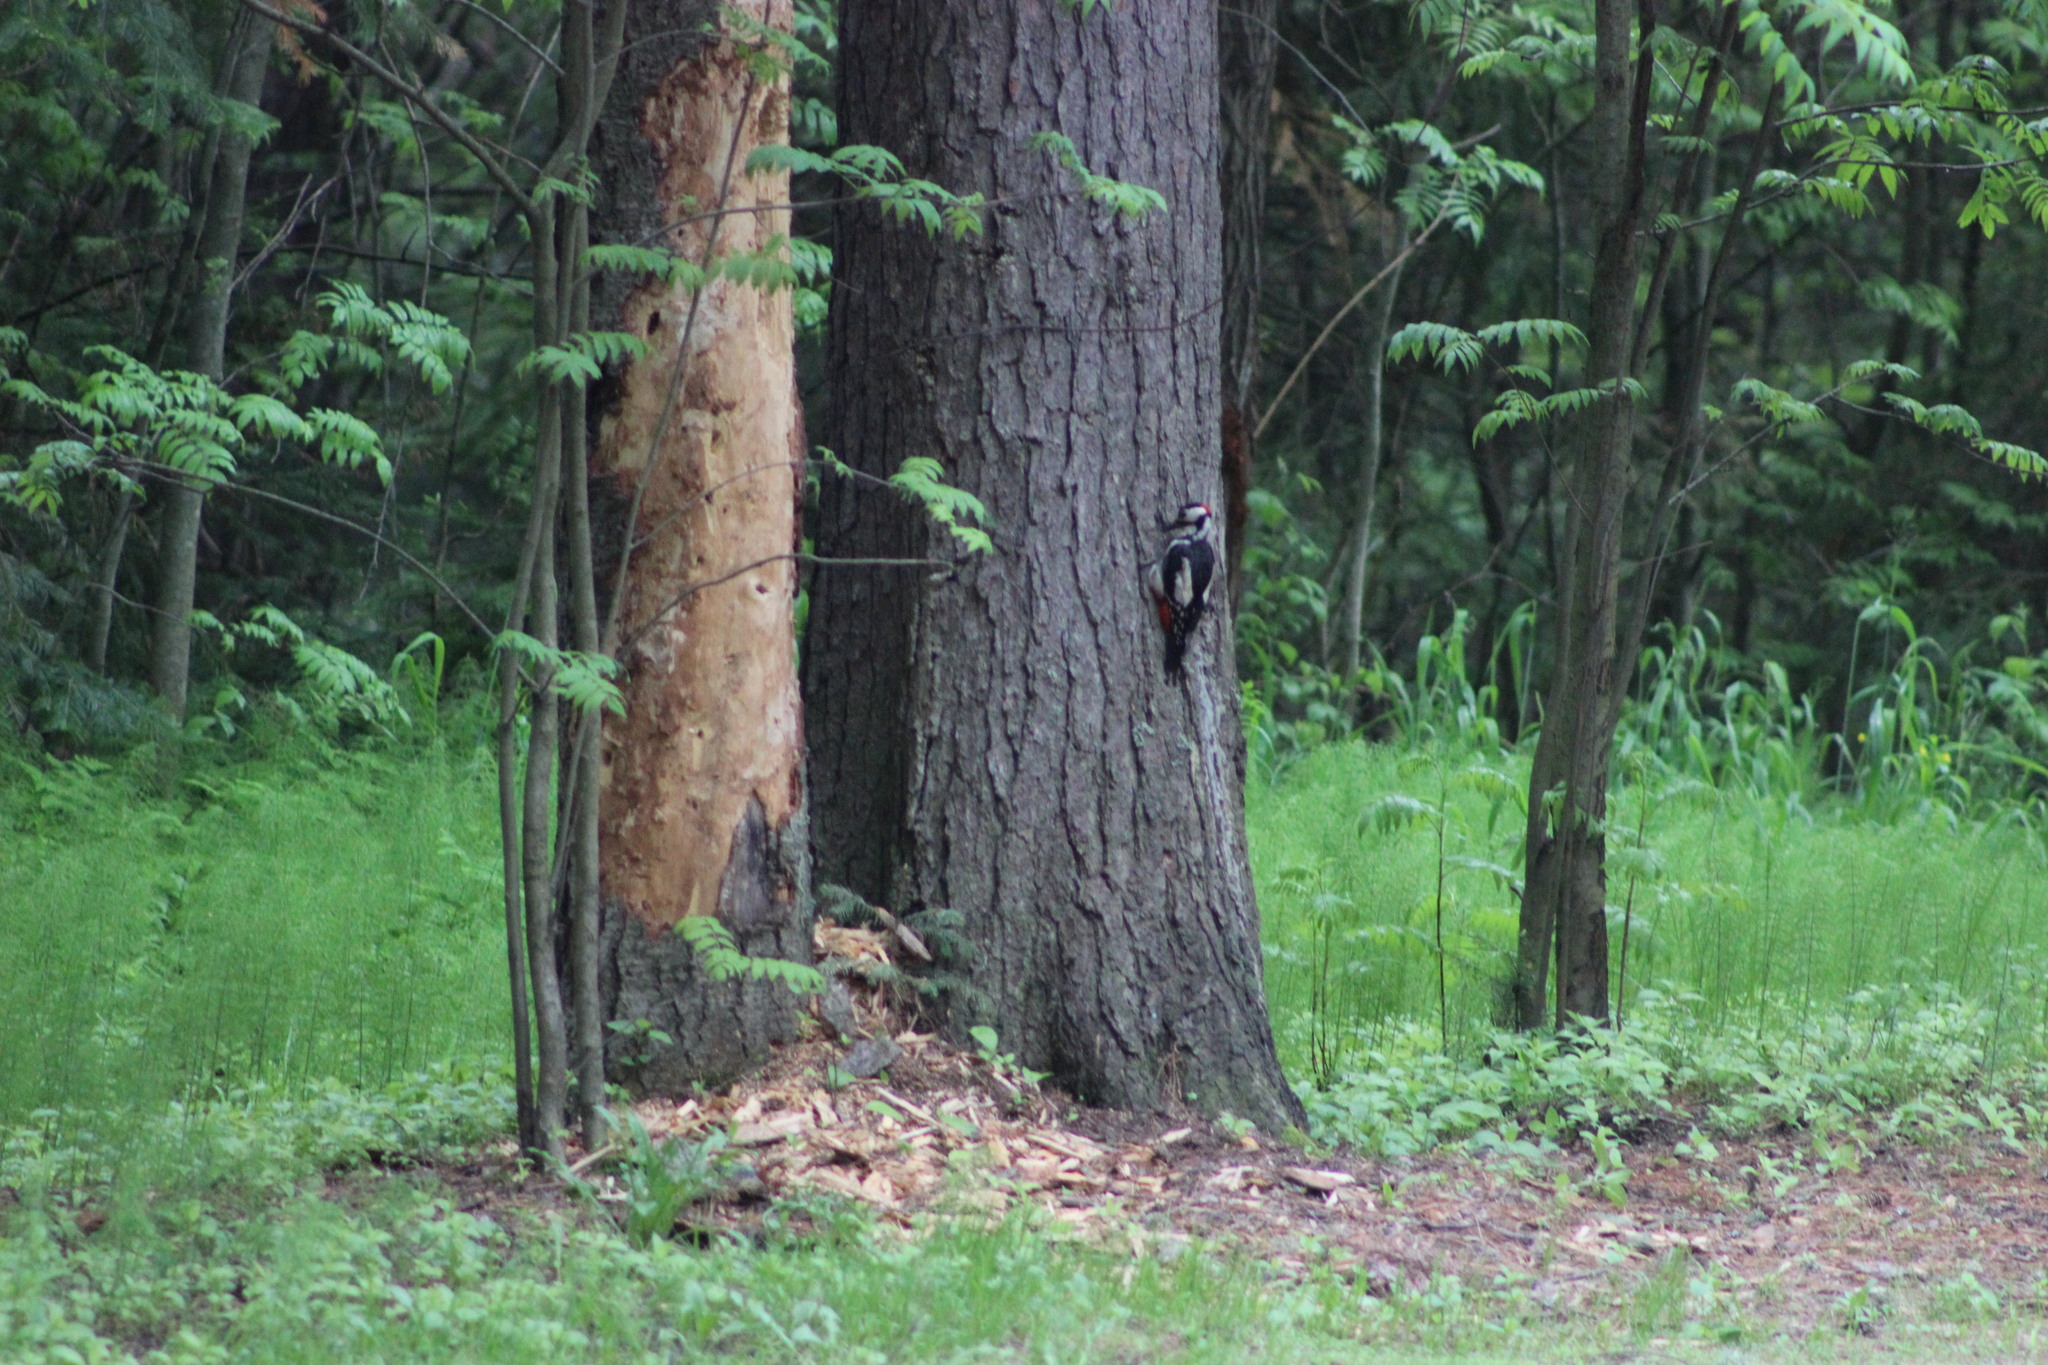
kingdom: Animalia
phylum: Chordata
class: Aves
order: Piciformes
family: Picidae
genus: Dendrocopos
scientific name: Dendrocopos major
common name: Great spotted woodpecker
